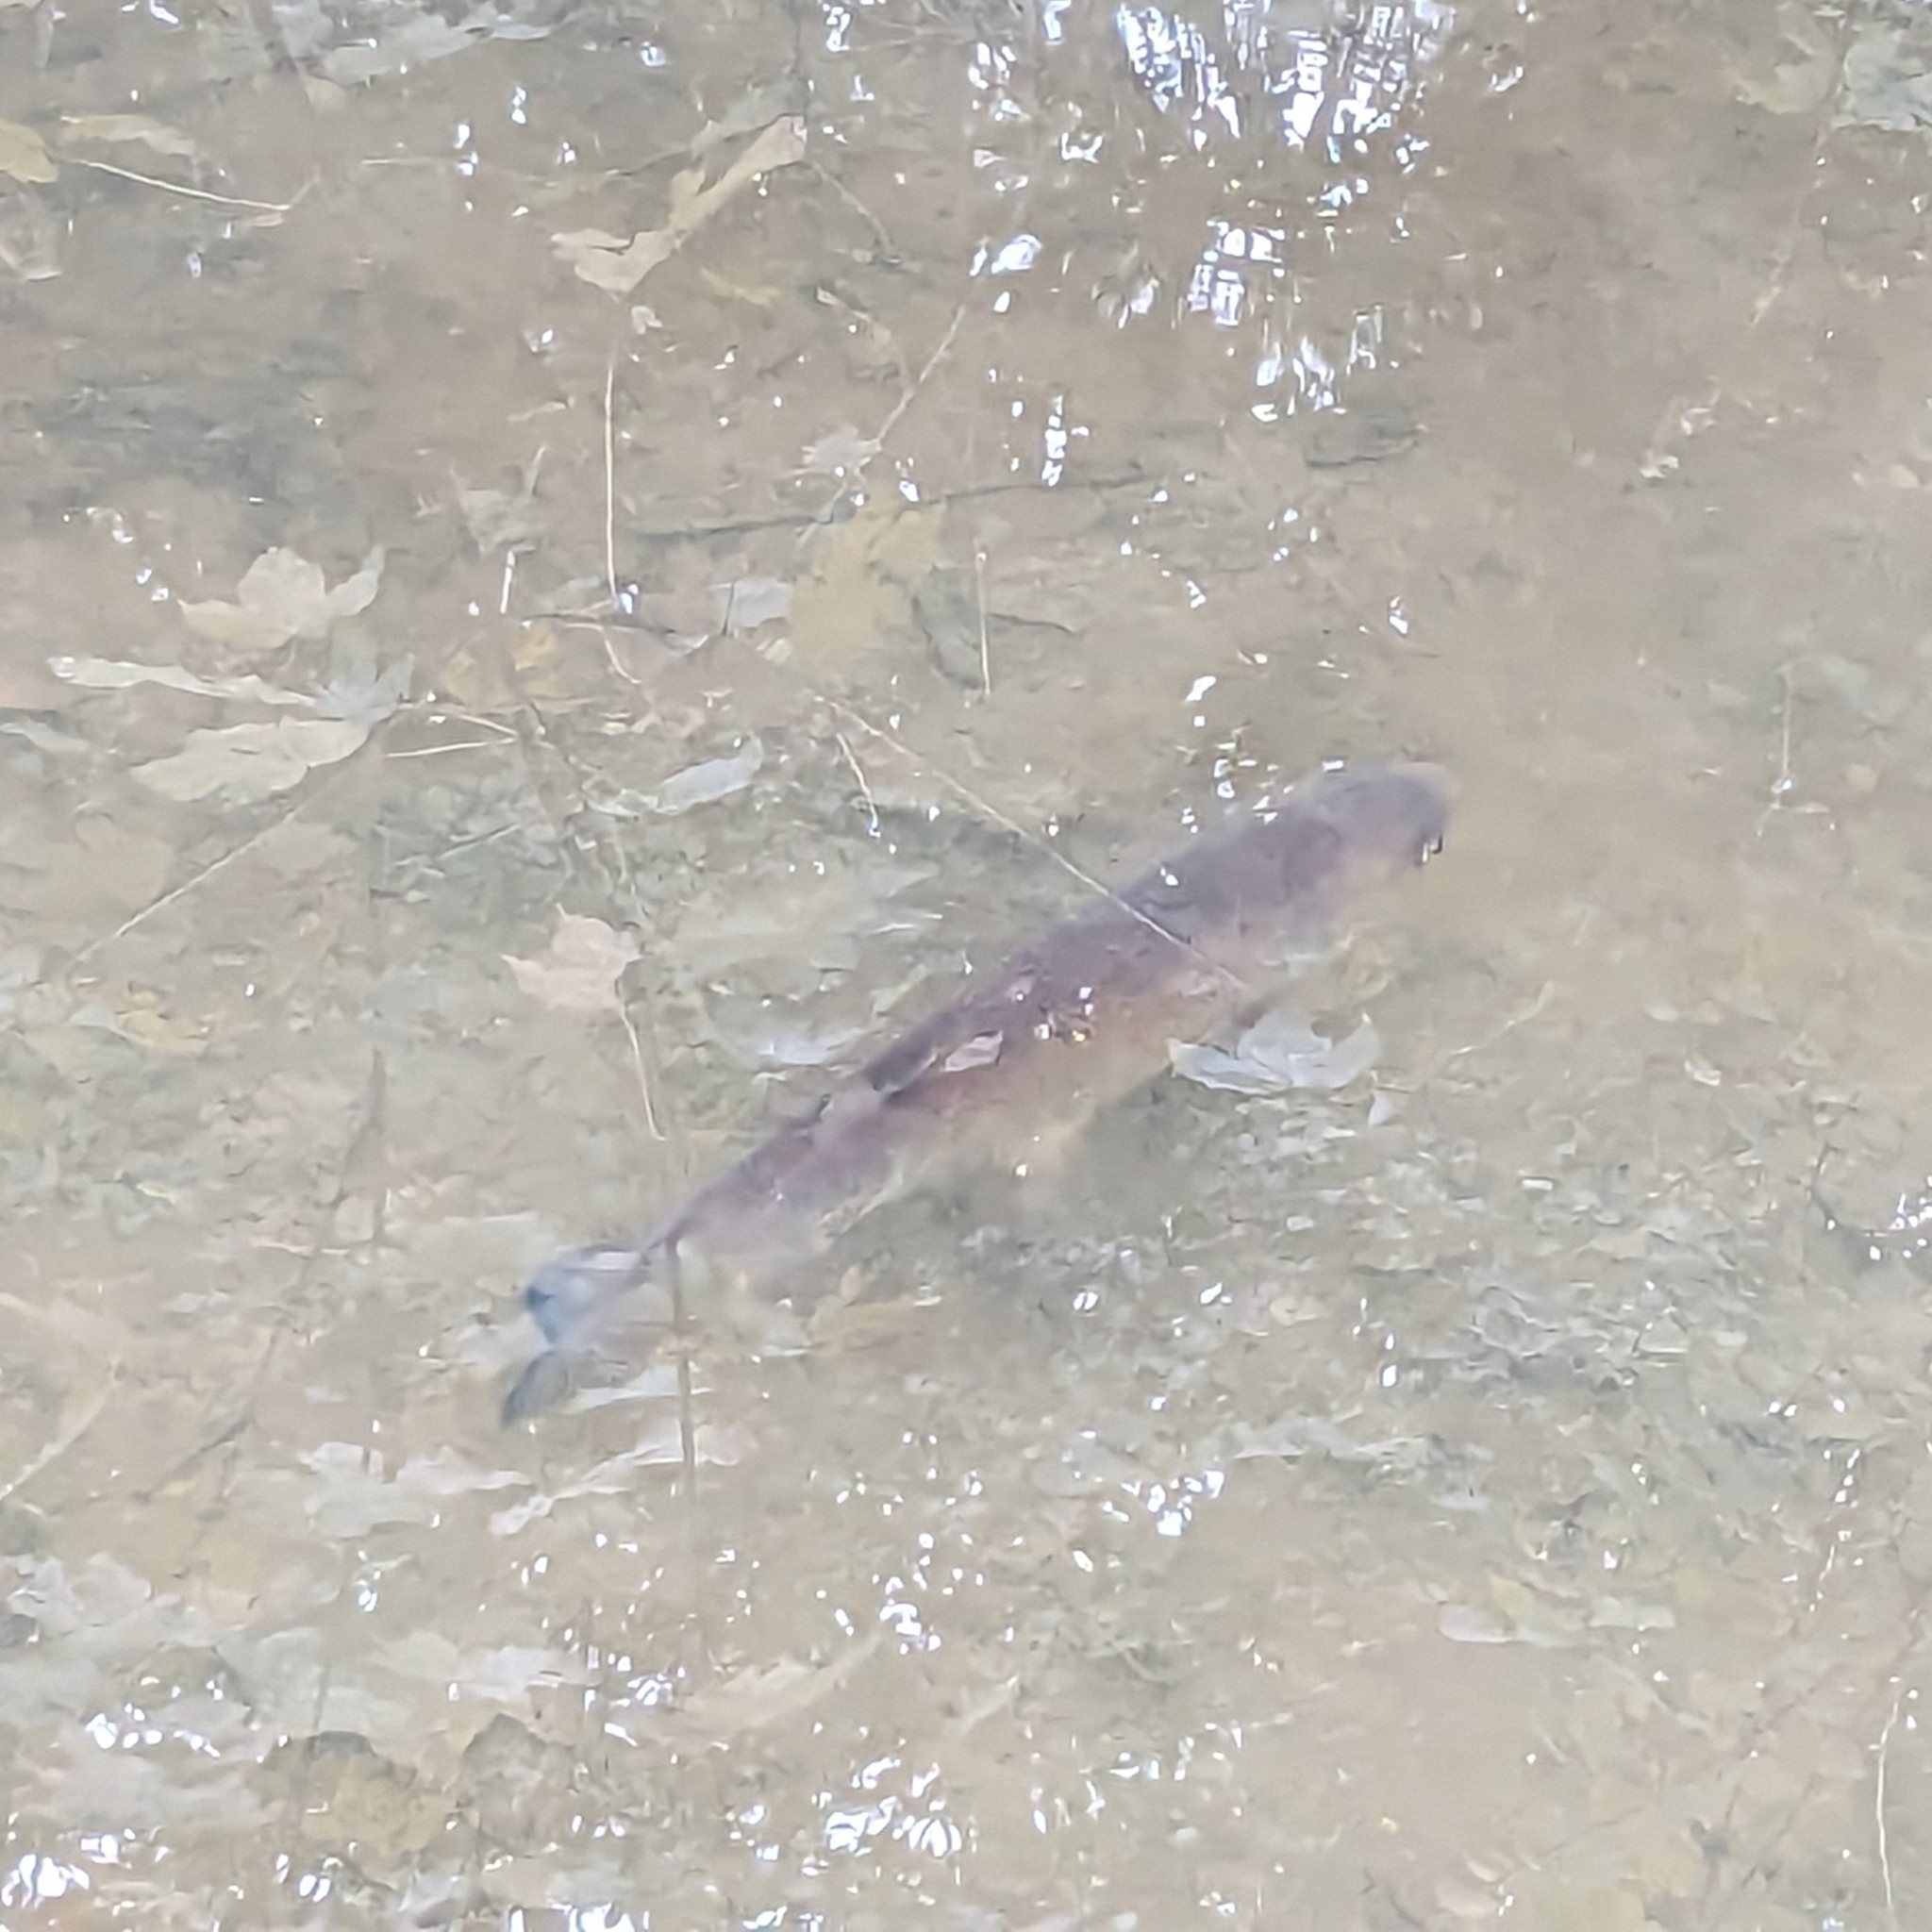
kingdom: Animalia
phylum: Chordata
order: Cypriniformes
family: Cyprinidae
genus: Squalius
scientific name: Squalius cephalus
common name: Chub
